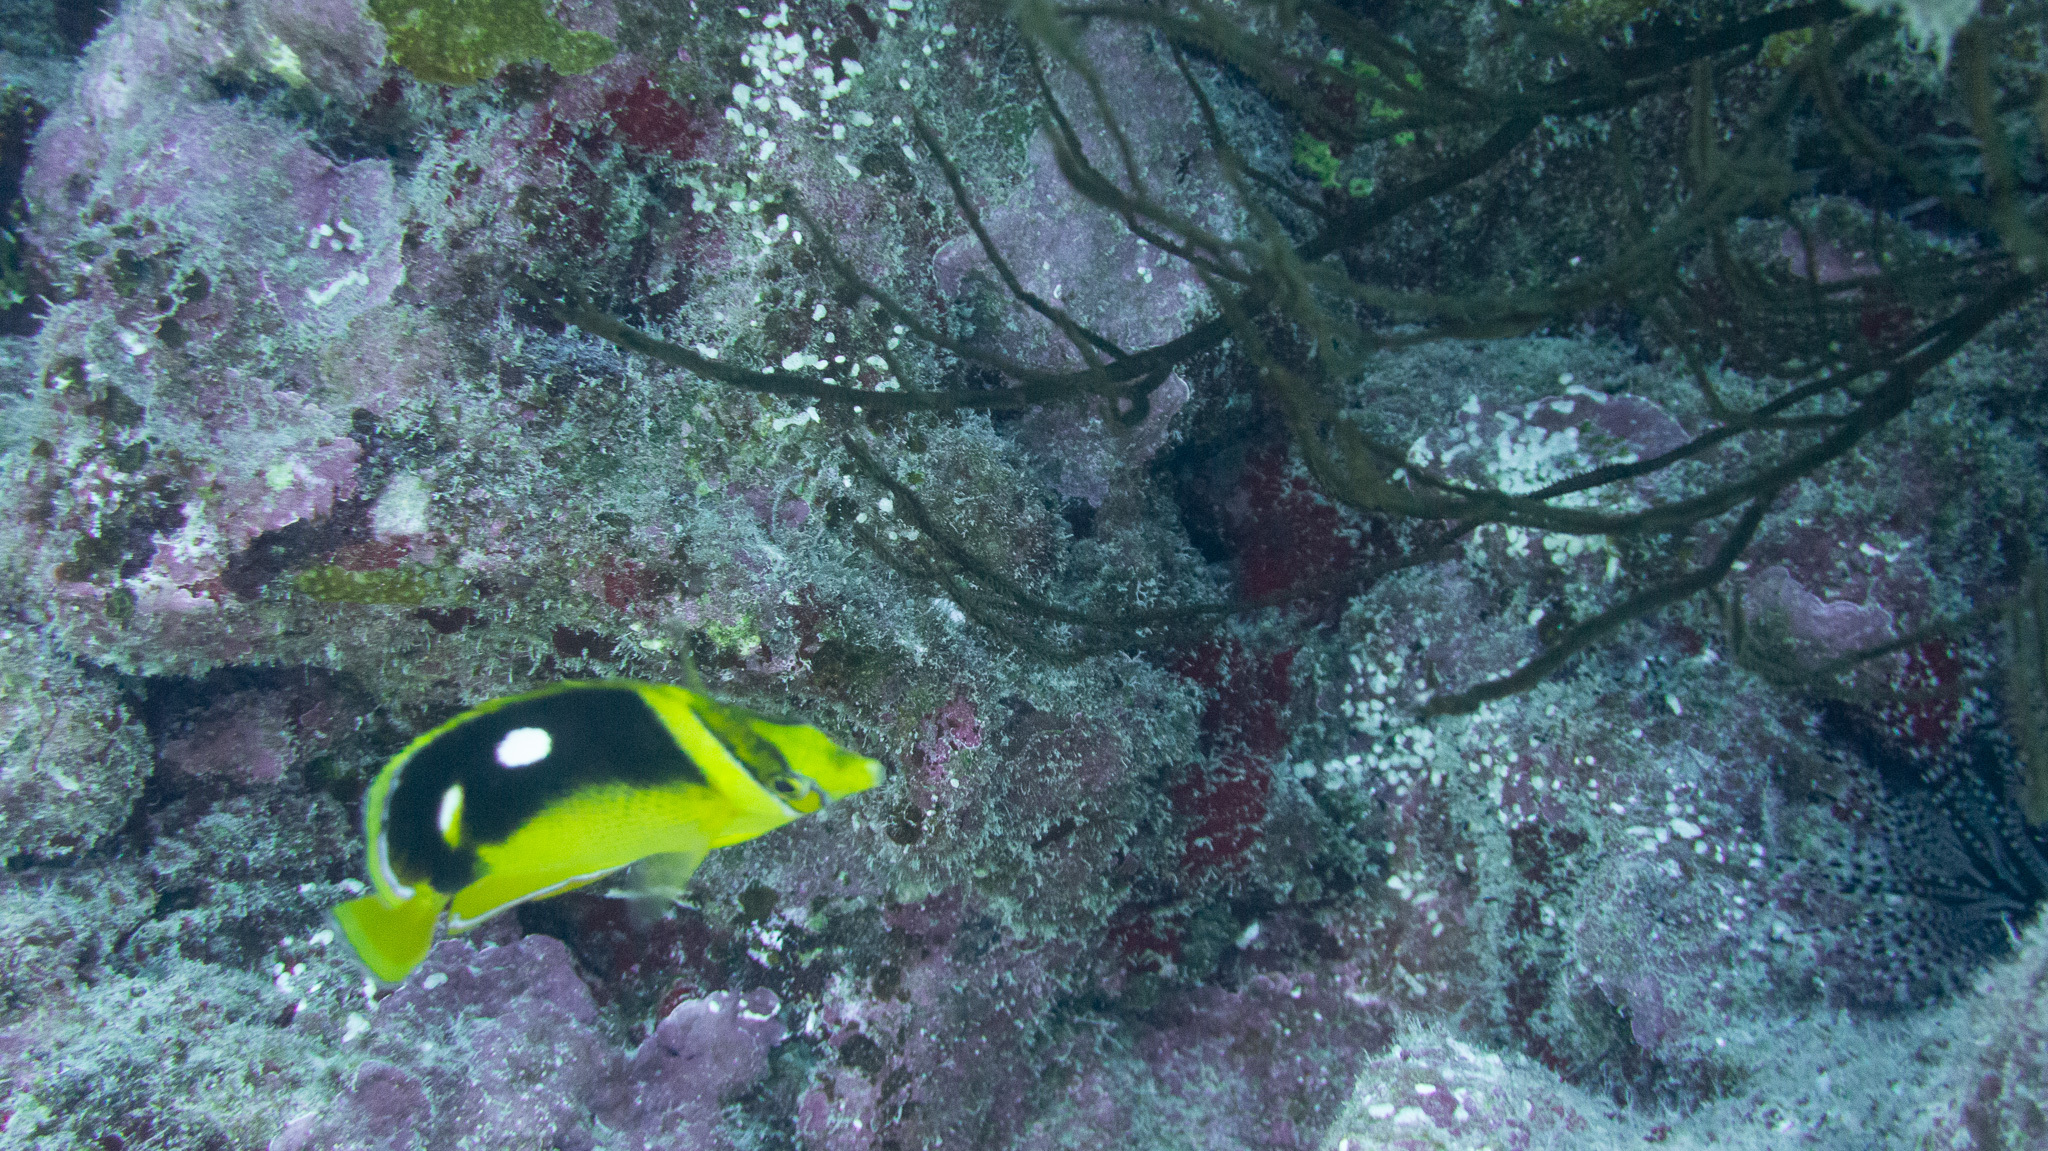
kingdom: Animalia
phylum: Chordata
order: Perciformes
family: Chaetodontidae
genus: Chaetodon
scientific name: Chaetodon quadrimaculatus
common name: Fourspot butterflyfish
